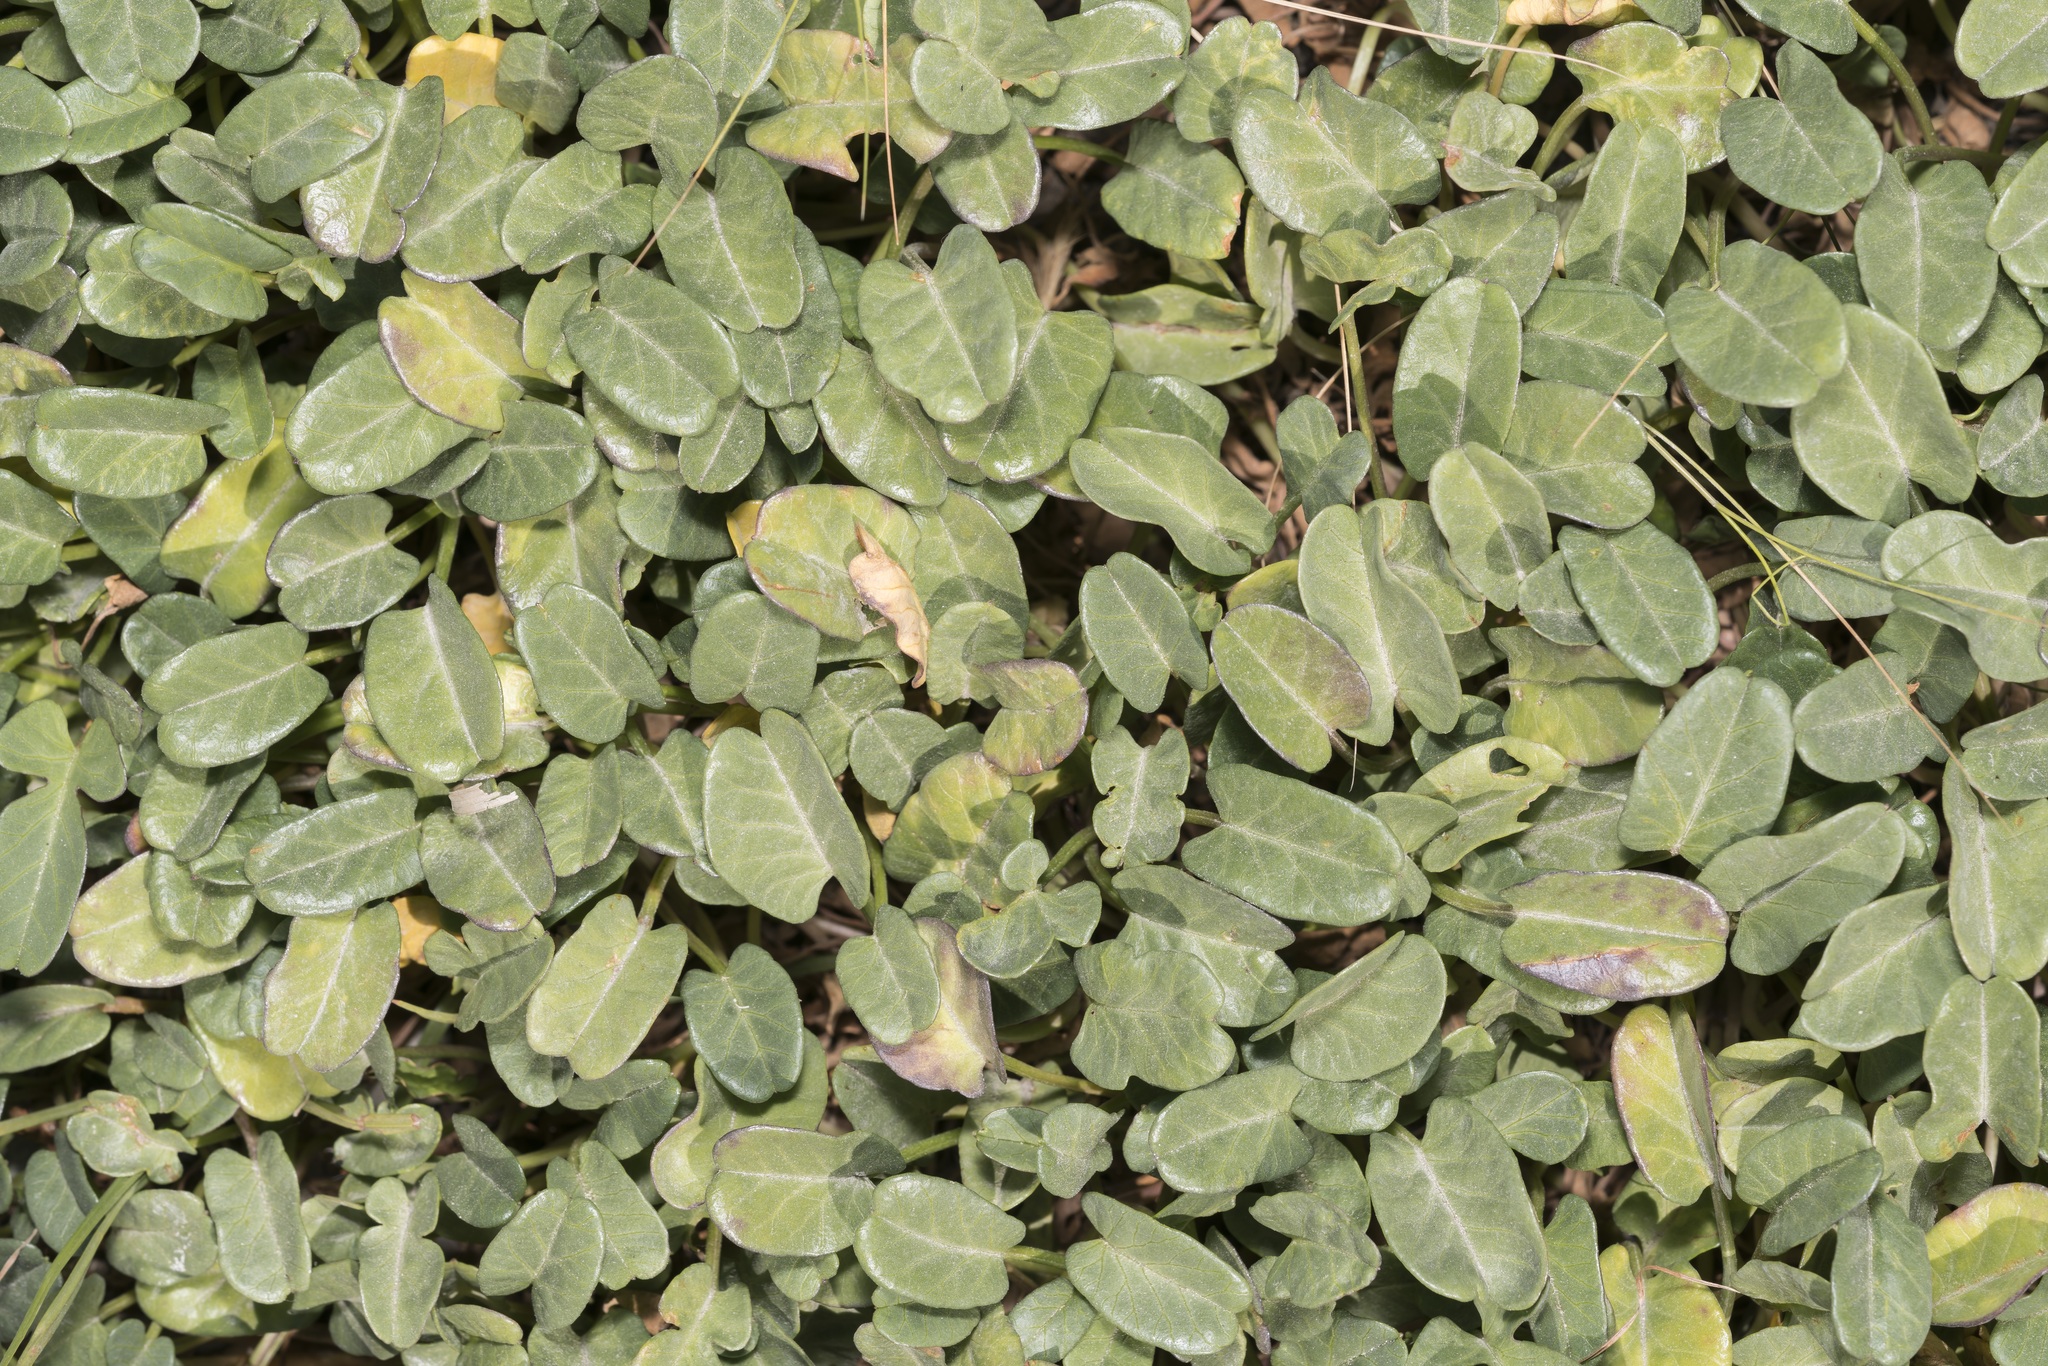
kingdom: Plantae
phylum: Tracheophyta
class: Magnoliopsida
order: Solanales
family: Convolvulaceae
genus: Ipomoea
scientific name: Ipomoea imperati
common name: Fiddle-leaf morning-glory
